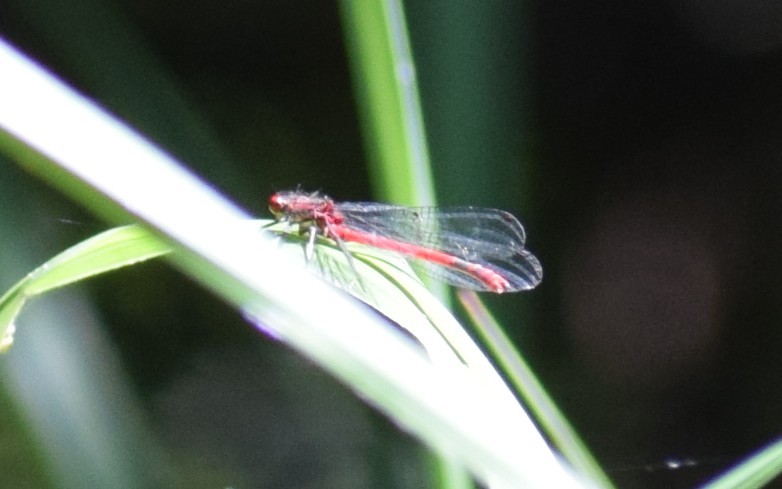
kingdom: Animalia
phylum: Arthropoda
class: Insecta
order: Odonata
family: Coenagrionidae
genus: Pyrrhosoma
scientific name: Pyrrhosoma nymphula
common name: Large red damsel
